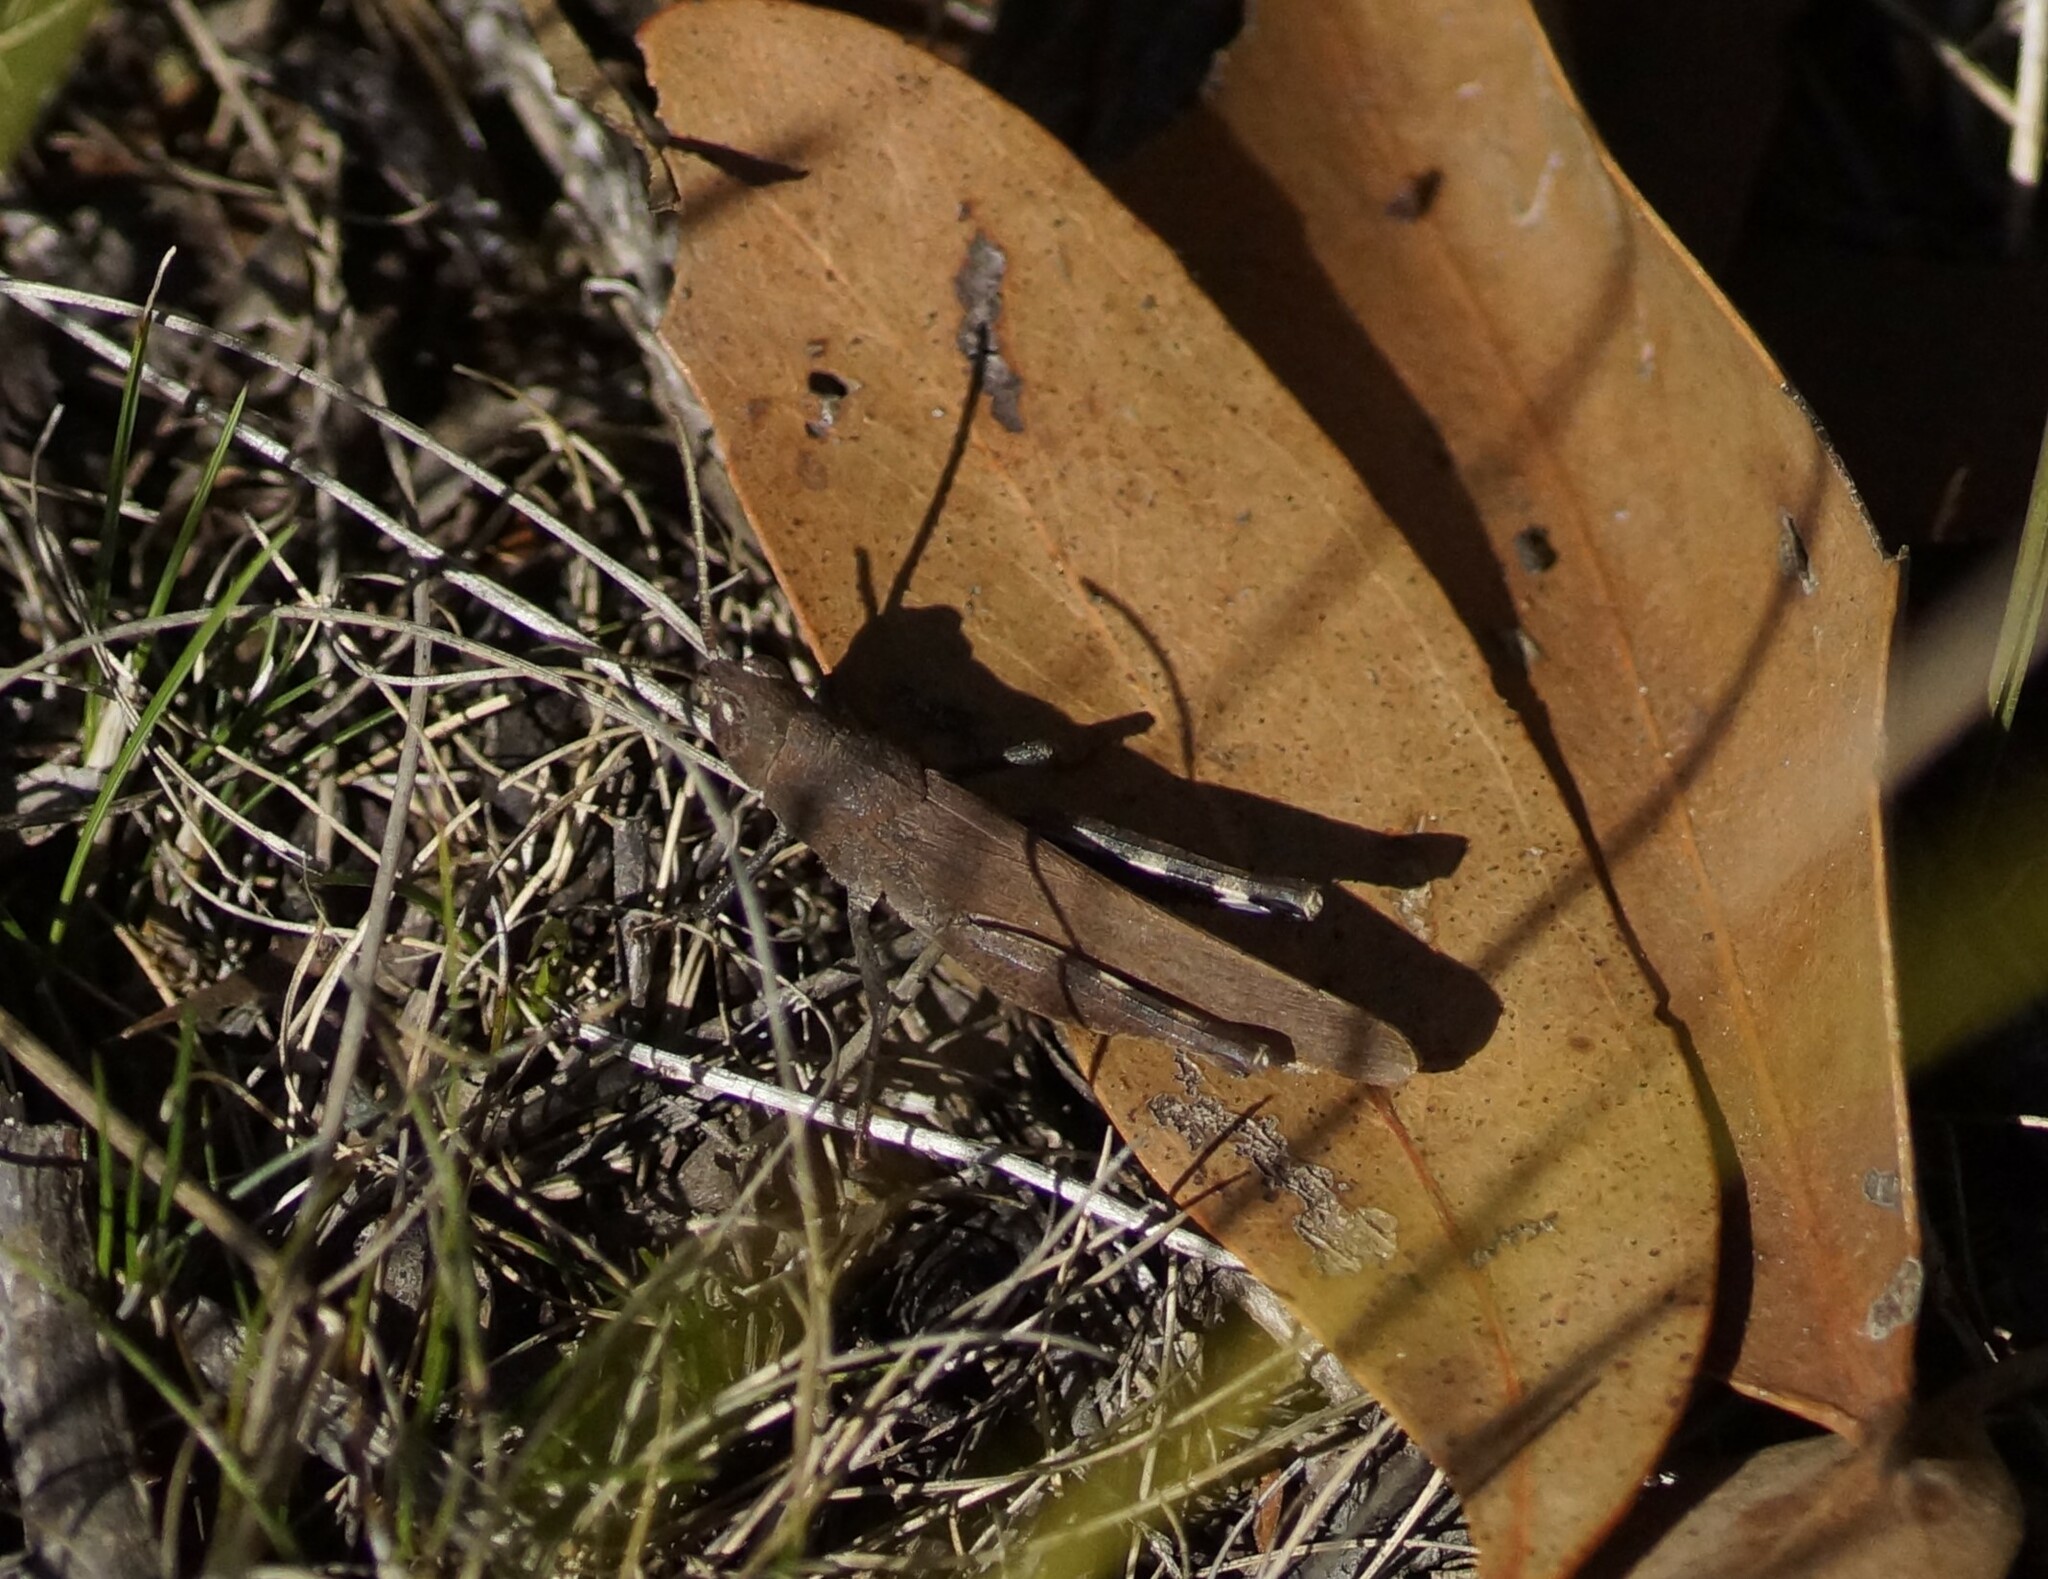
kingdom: Animalia
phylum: Arthropoda
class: Insecta
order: Orthoptera
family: Acrididae
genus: Goniaea
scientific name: Goniaea opomaloides
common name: Mimetic gumleaf grasshopper
